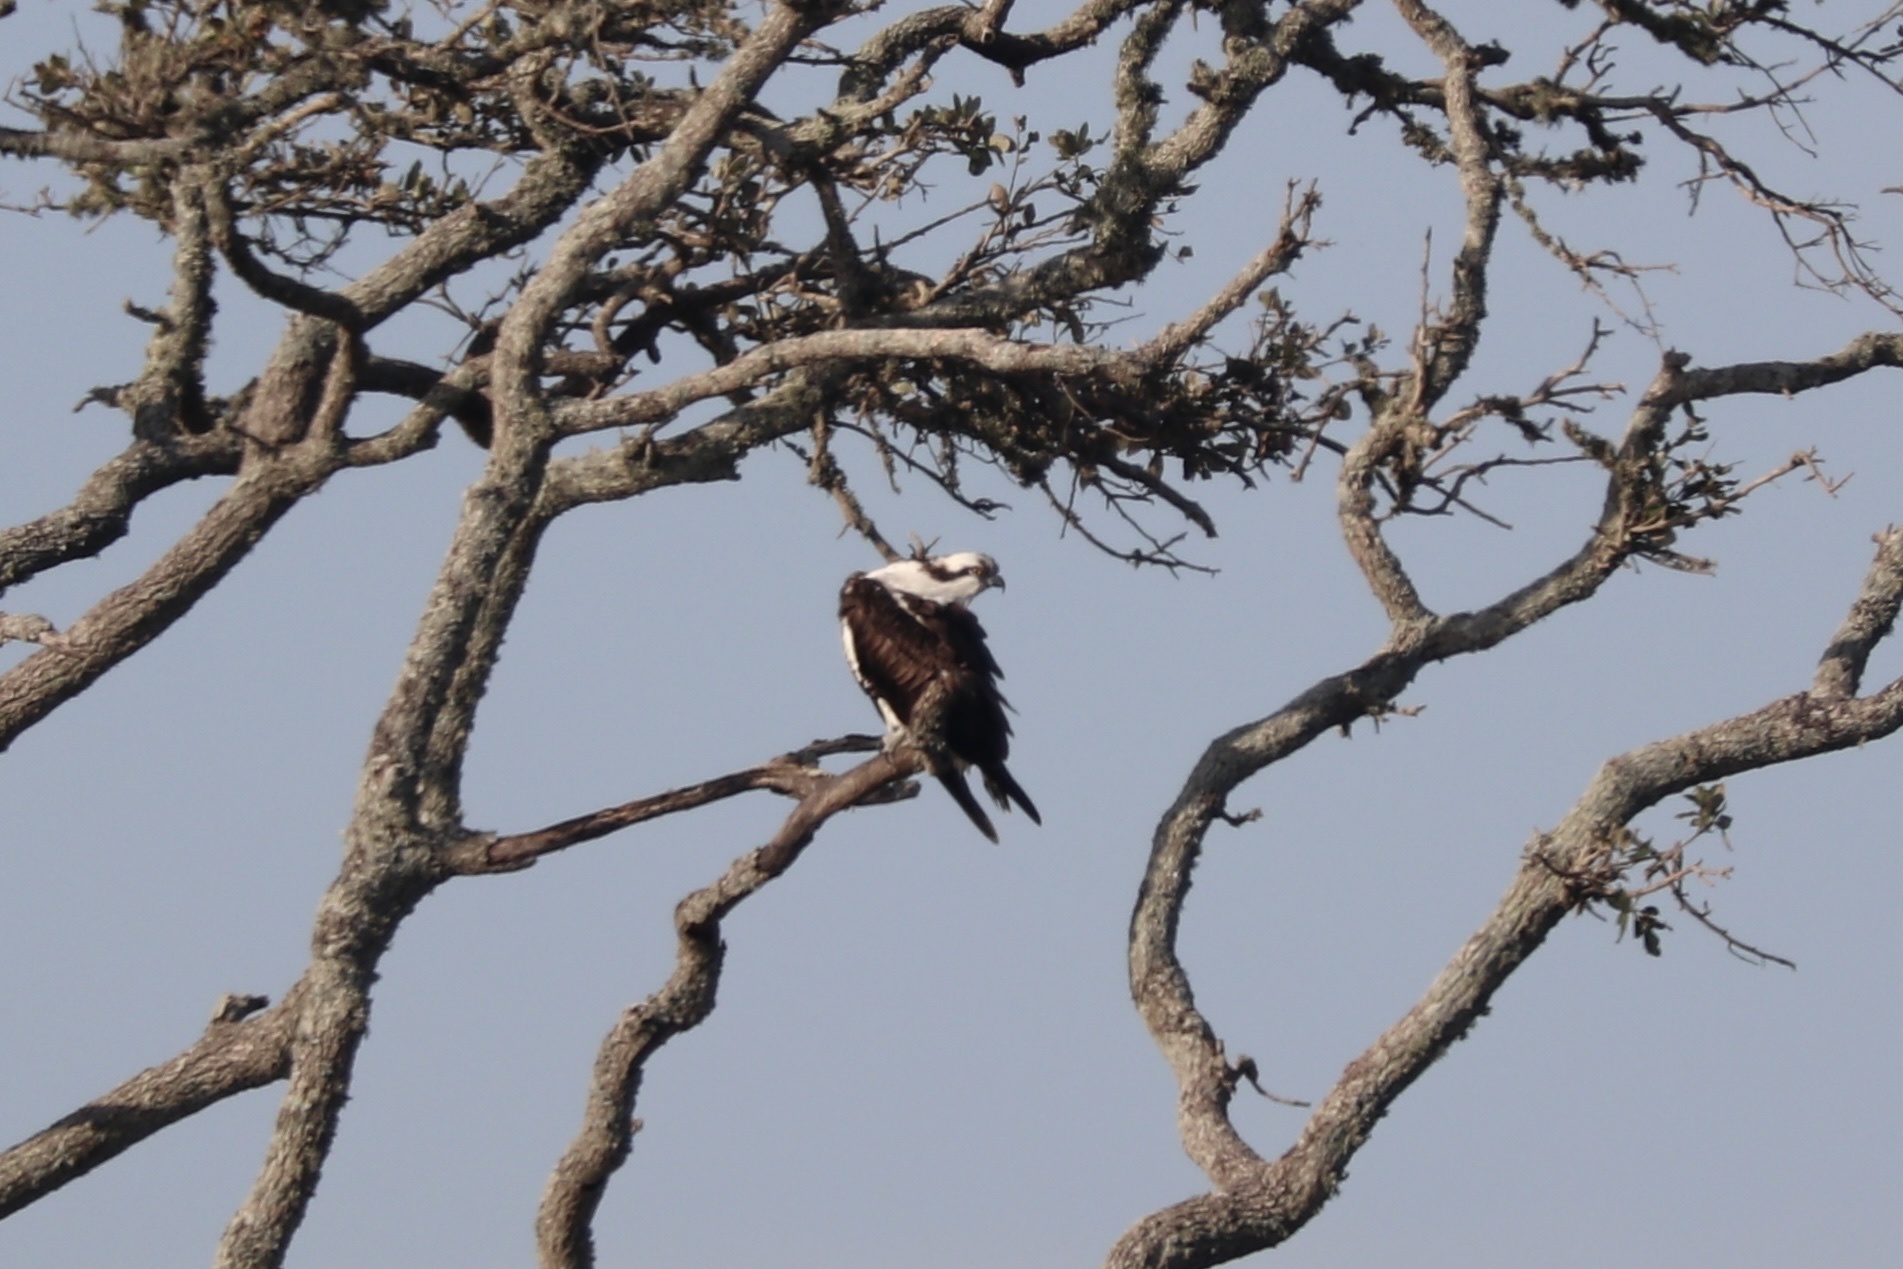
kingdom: Animalia
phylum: Chordata
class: Aves
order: Accipitriformes
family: Pandionidae
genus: Pandion
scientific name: Pandion haliaetus
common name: Osprey
